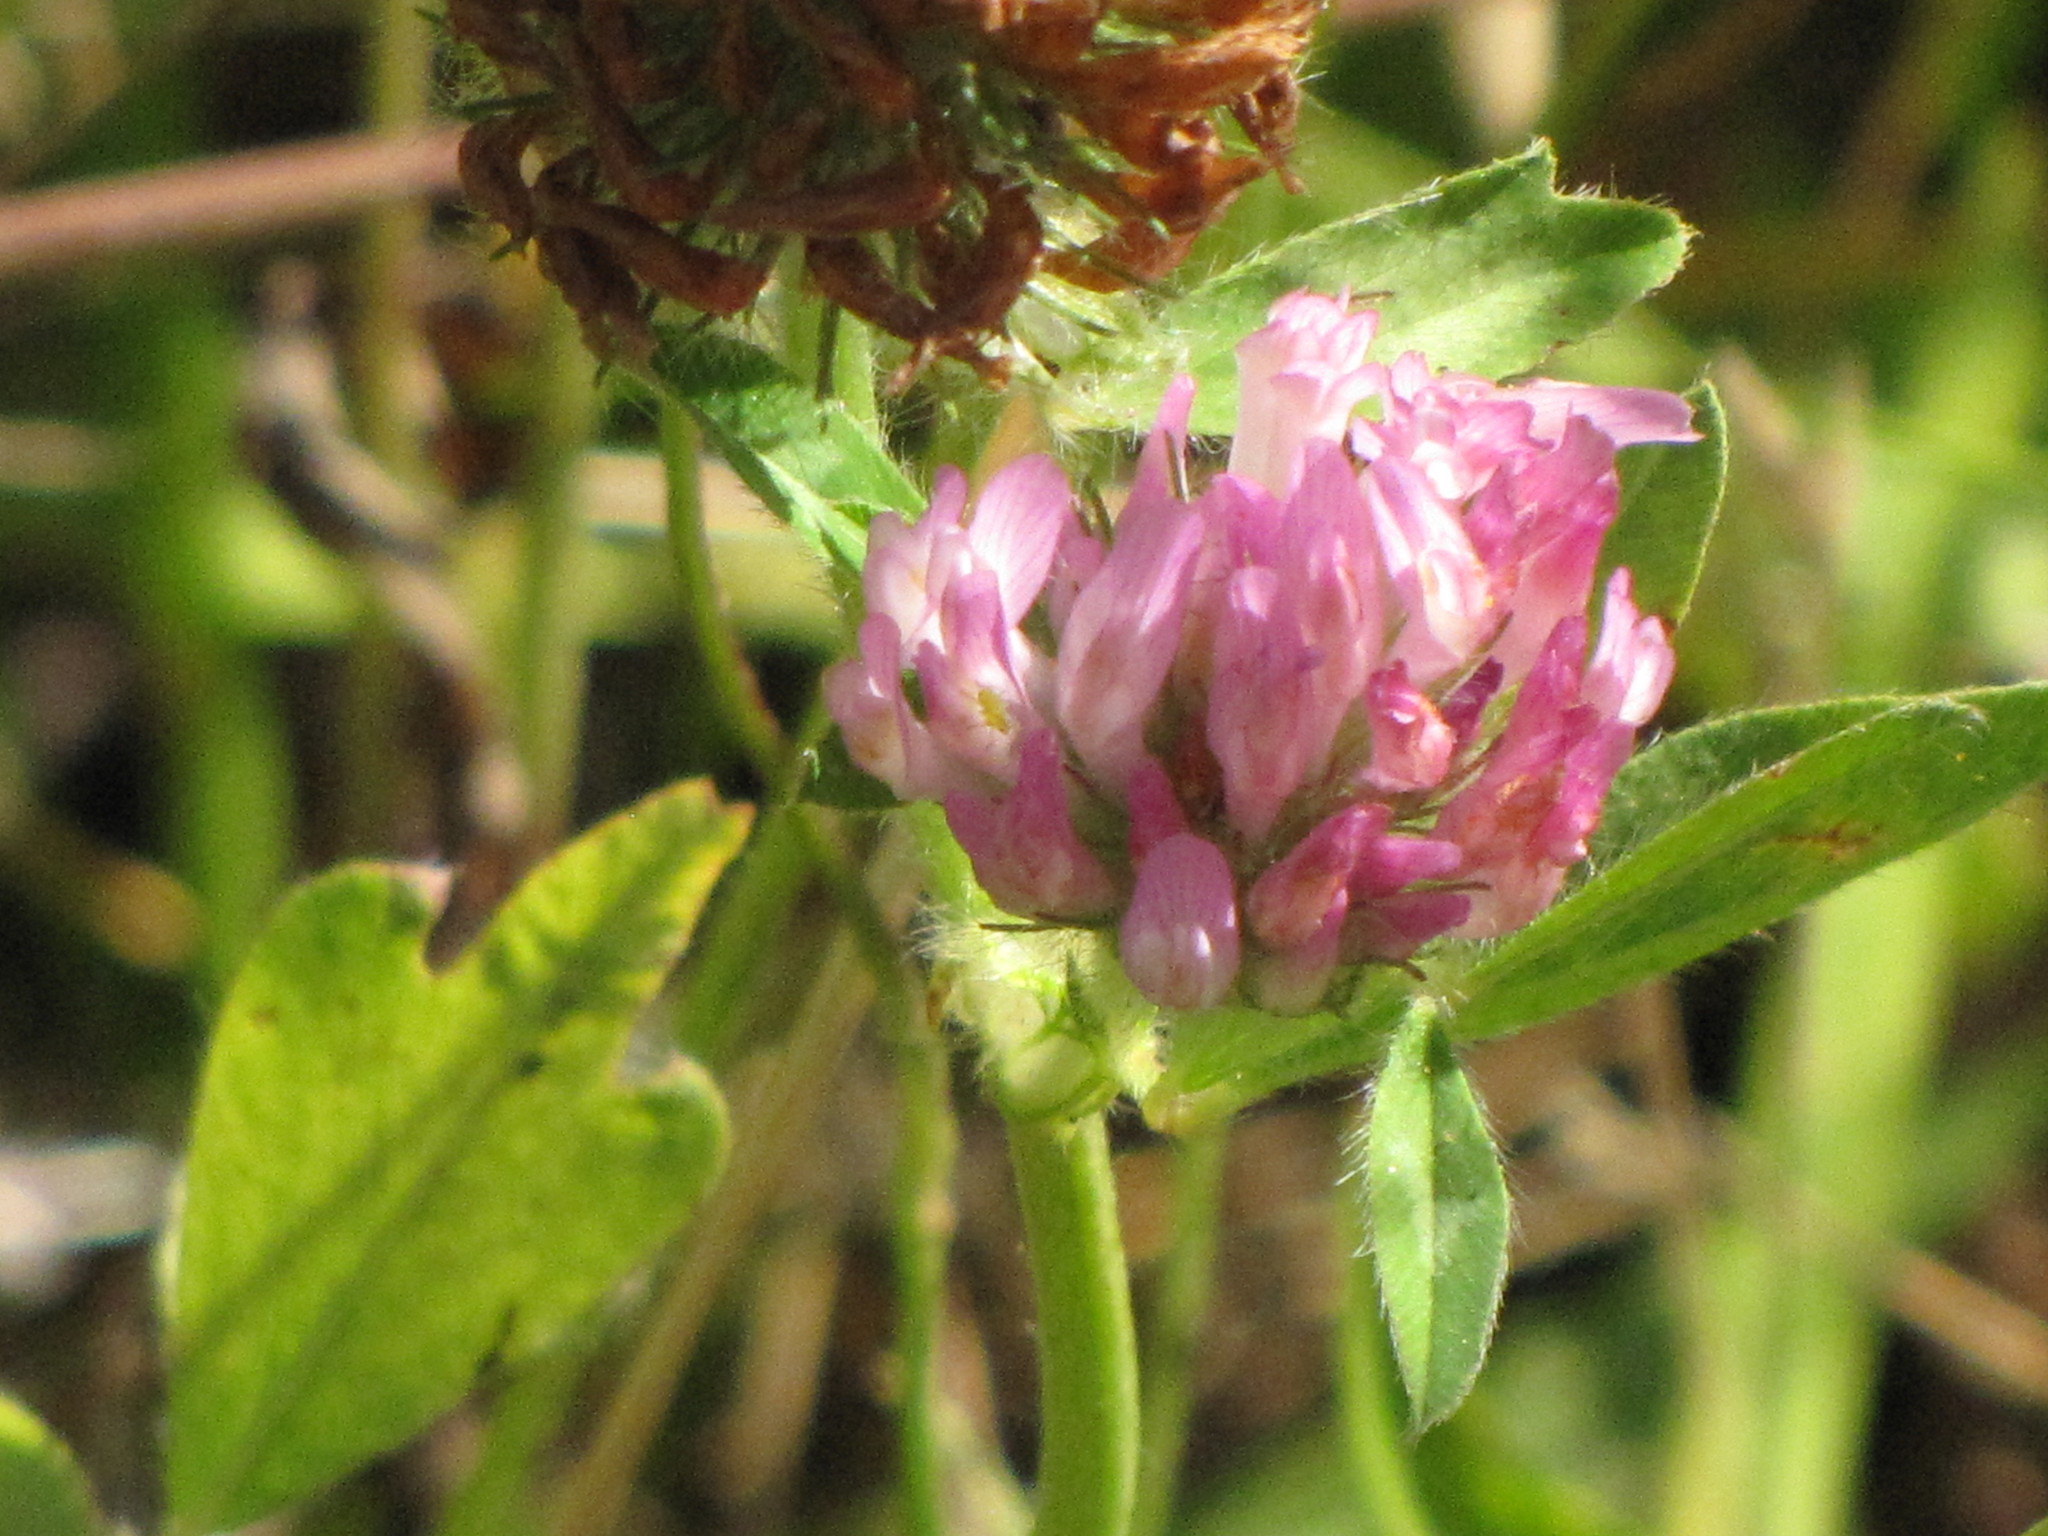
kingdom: Plantae
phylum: Tracheophyta
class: Magnoliopsida
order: Fabales
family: Fabaceae
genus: Trifolium
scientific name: Trifolium pratense
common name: Red clover
